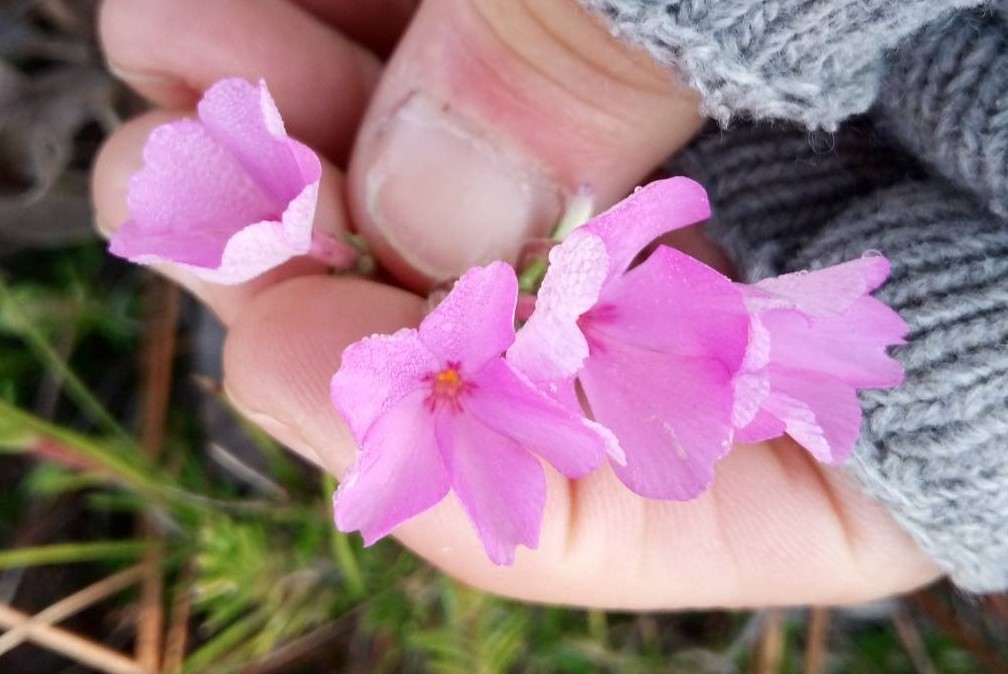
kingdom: Plantae
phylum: Tracheophyta
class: Magnoliopsida
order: Ericales
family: Polemoniaceae
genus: Phlox
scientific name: Phlox nivalis
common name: Trailing phlox
